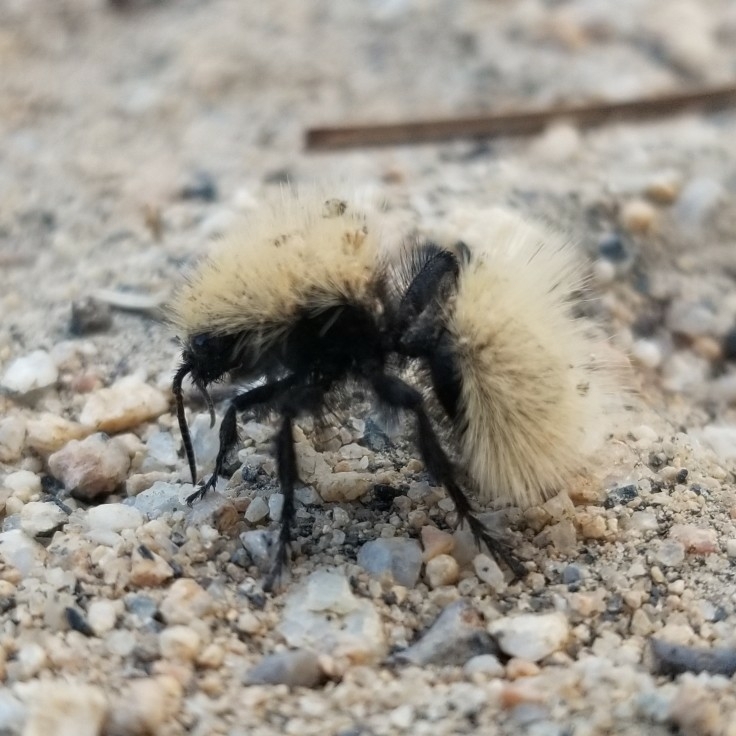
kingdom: Animalia
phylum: Arthropoda
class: Insecta
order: Hymenoptera
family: Mutillidae
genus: Dasymutilla
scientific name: Dasymutilla
